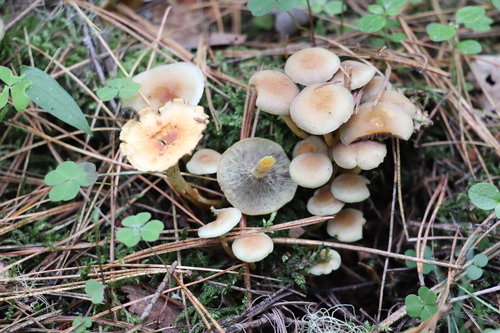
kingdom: Fungi
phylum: Basidiomycota
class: Agaricomycetes
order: Agaricales
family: Strophariaceae
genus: Hypholoma
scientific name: Hypholoma fasciculare
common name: Sulphur tuft
